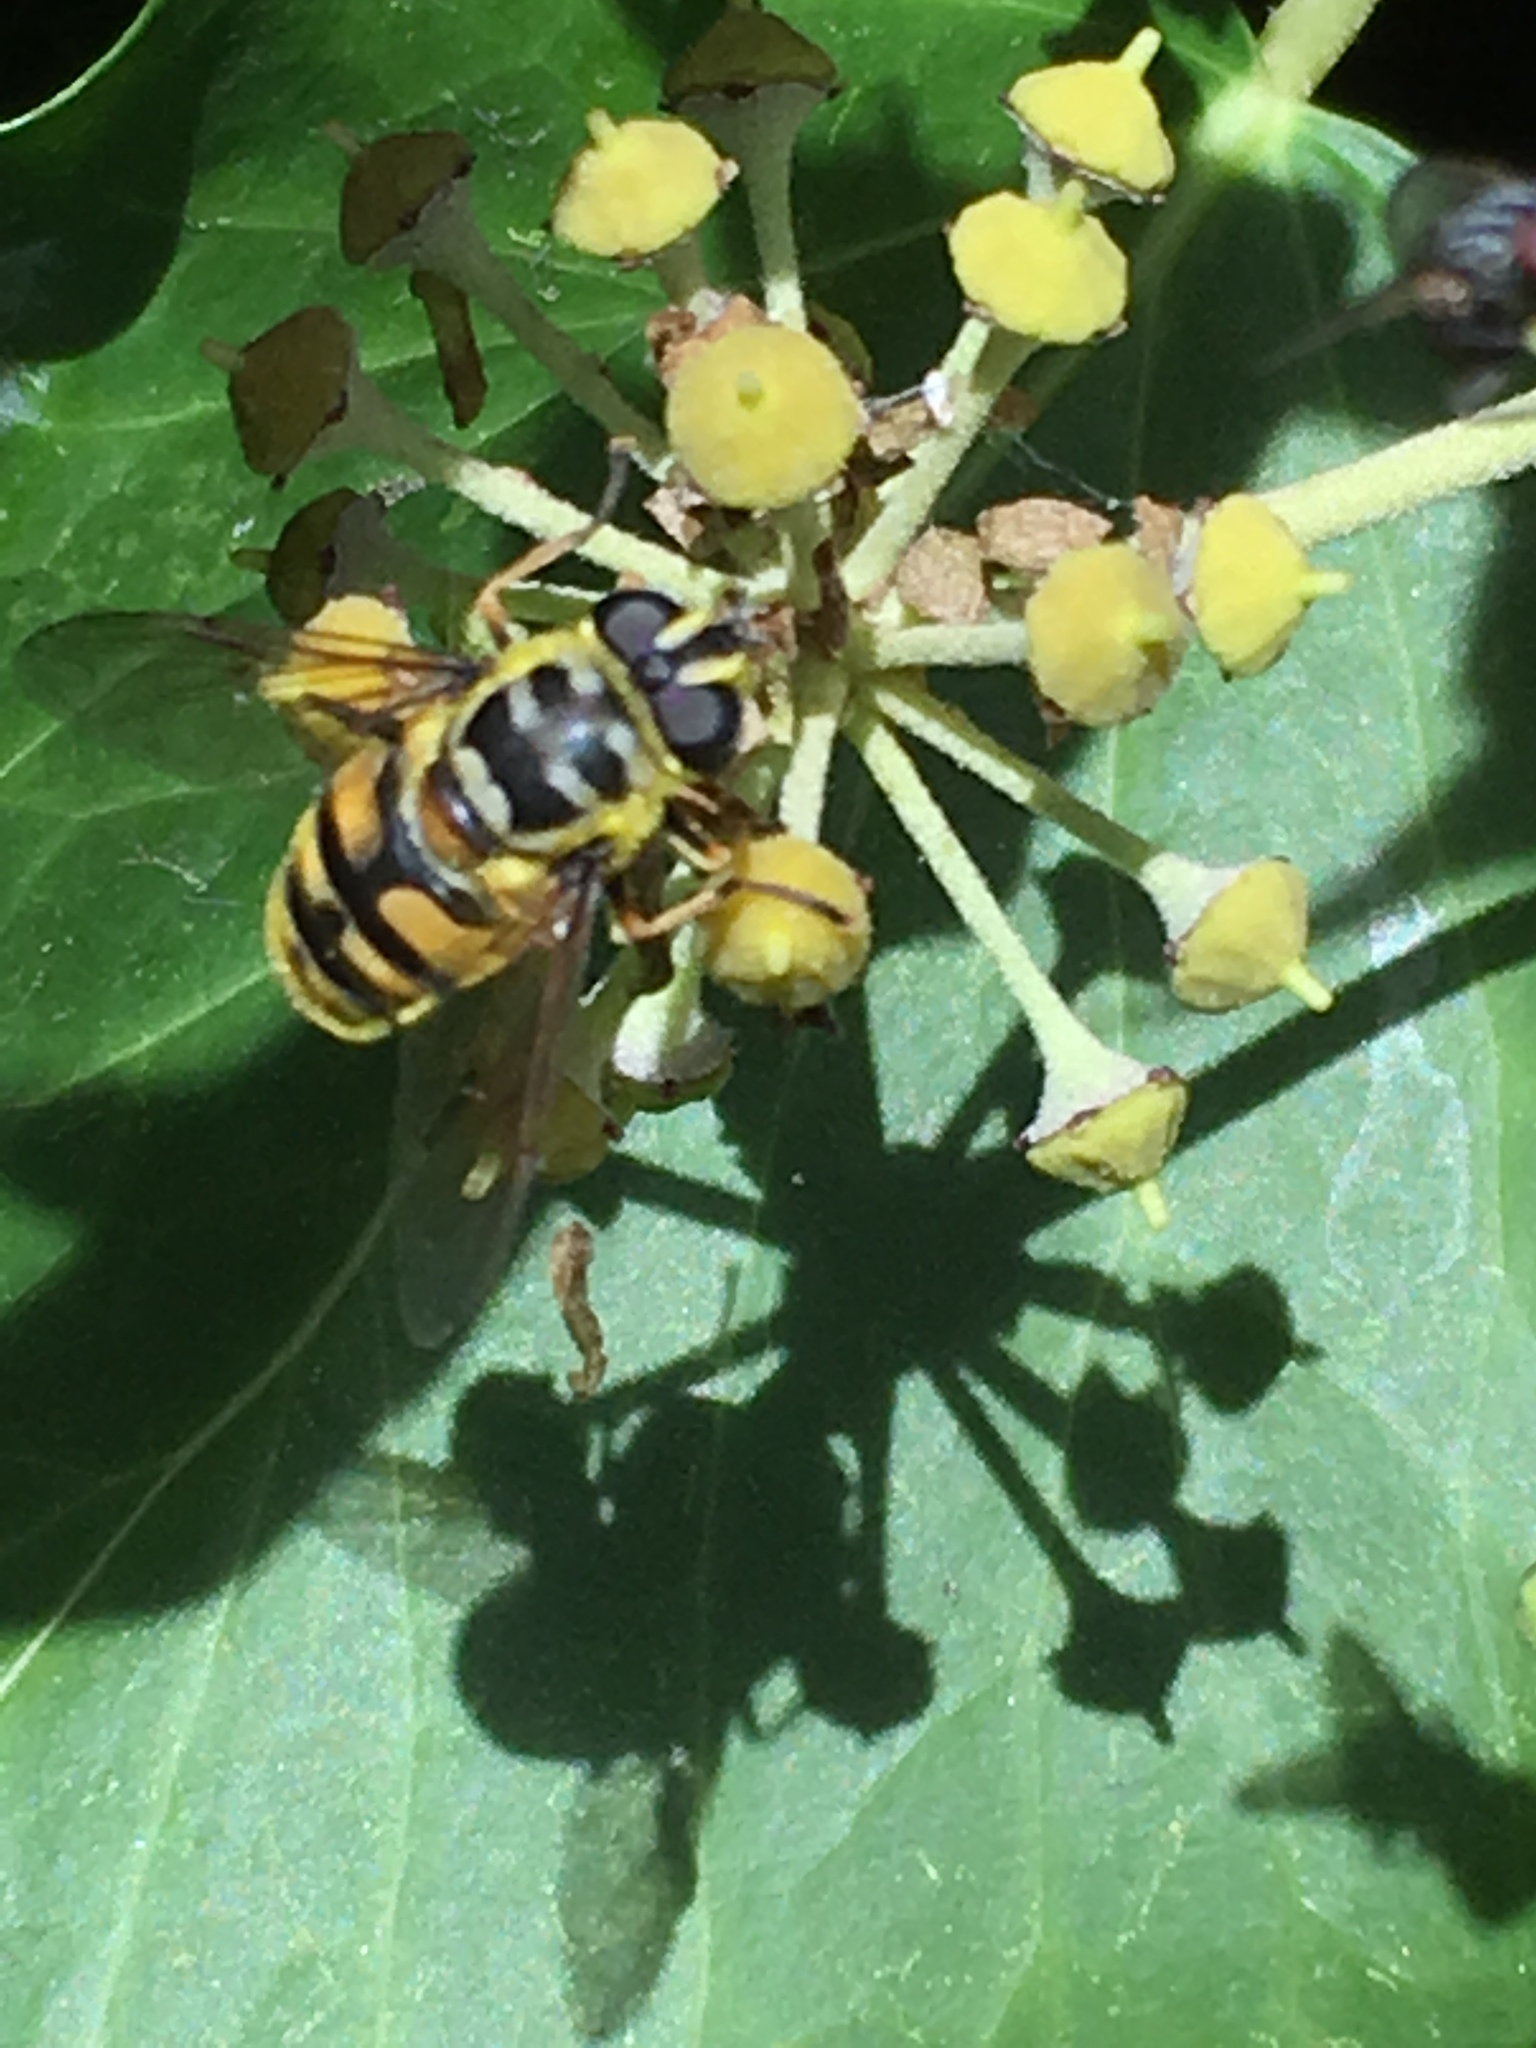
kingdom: Animalia
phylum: Arthropoda
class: Insecta
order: Diptera
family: Syrphidae
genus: Myathropa
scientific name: Myathropa florea
